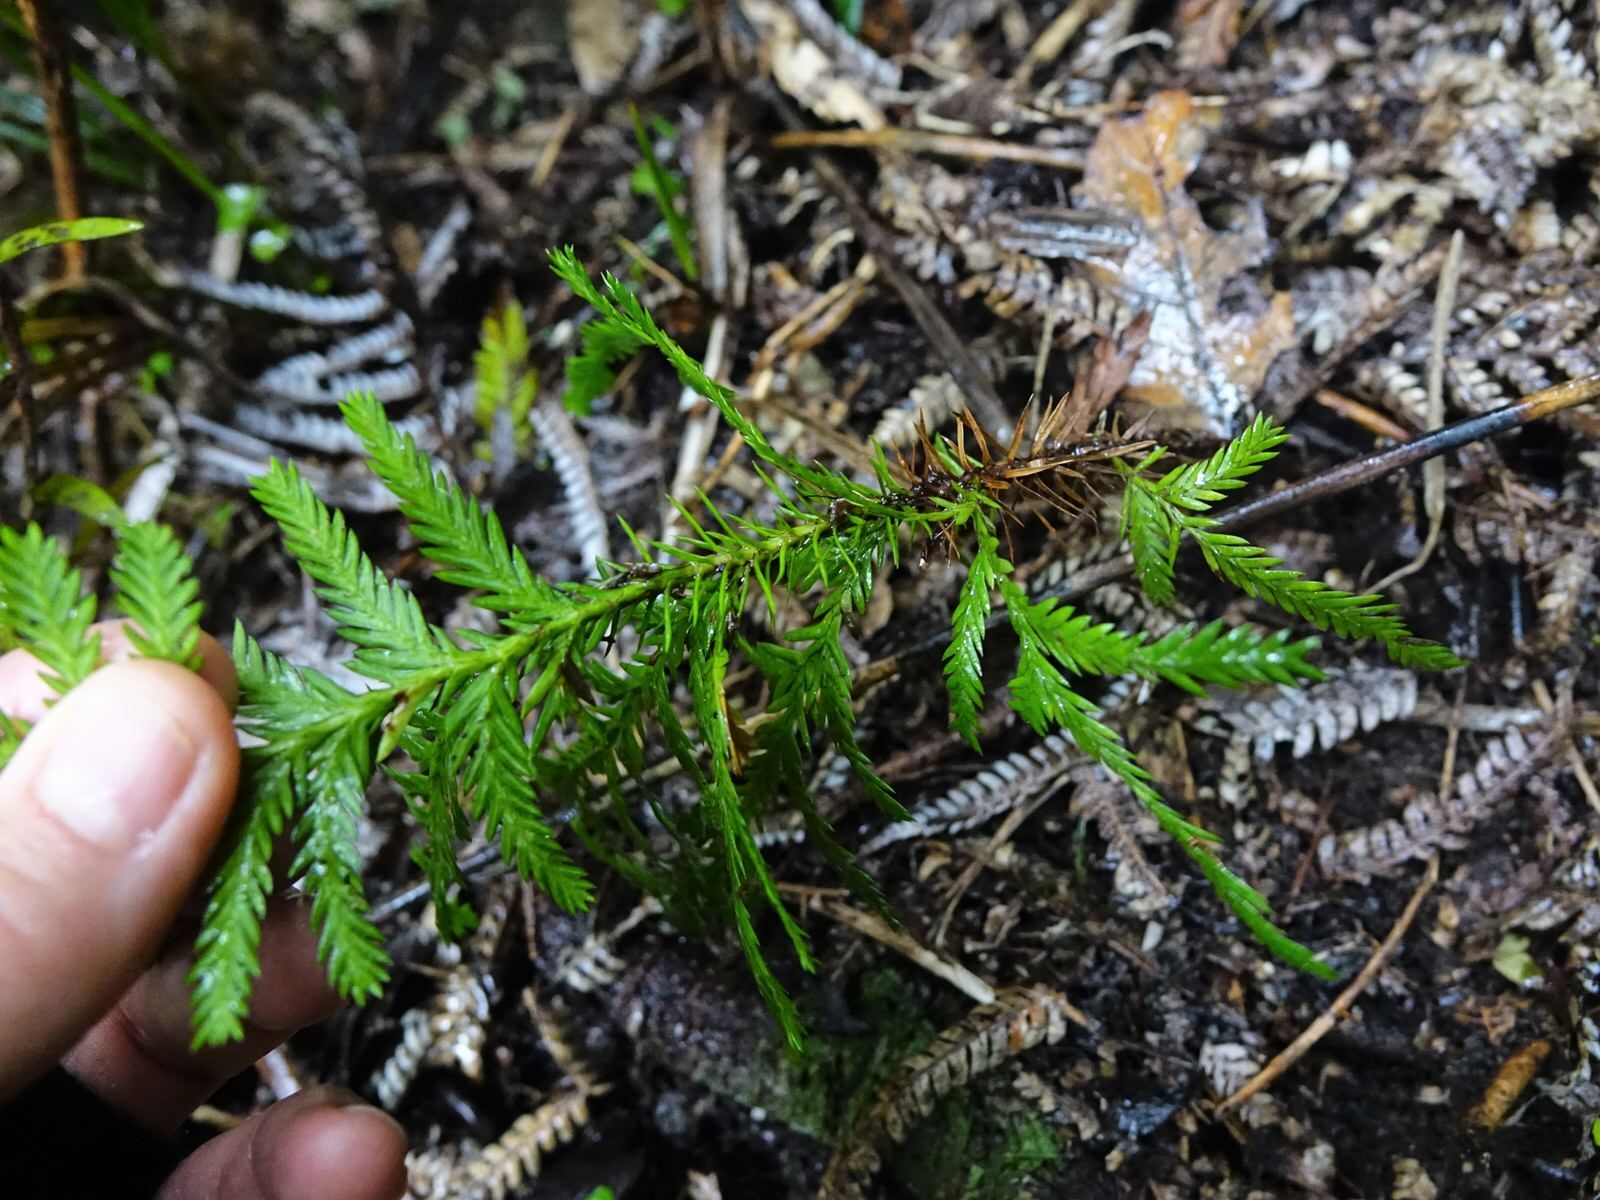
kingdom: Plantae
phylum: Tracheophyta
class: Pinopsida
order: Pinales
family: Cupressaceae
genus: Libocedrus
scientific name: Libocedrus plumosa
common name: New zealand cedar
